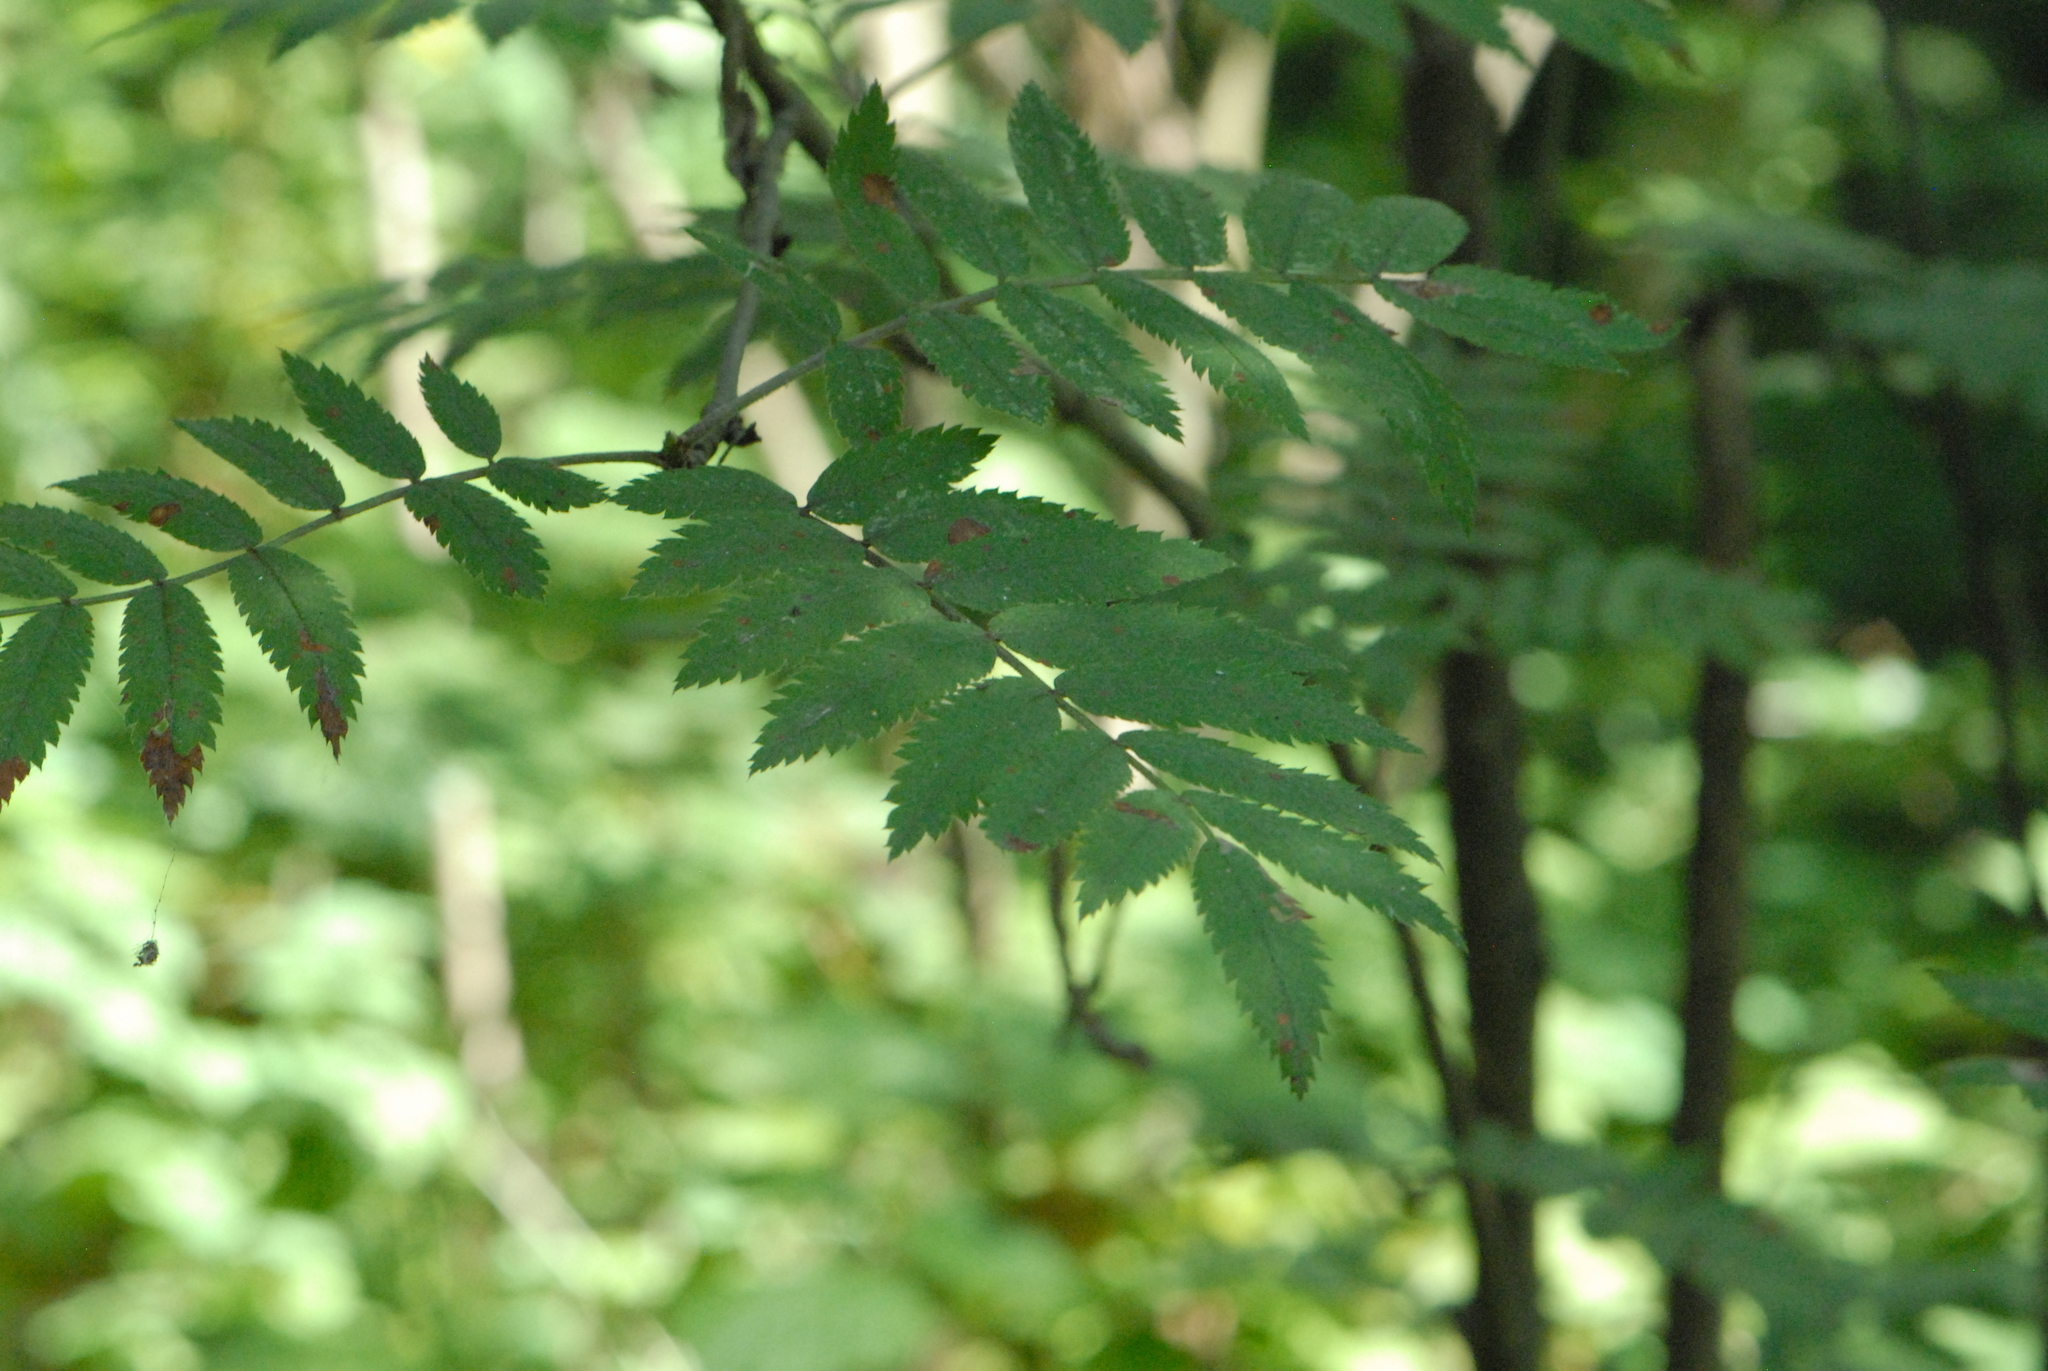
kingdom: Plantae
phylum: Tracheophyta
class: Magnoliopsida
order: Rosales
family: Rosaceae
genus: Sorbus
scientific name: Sorbus aucuparia
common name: Rowan
